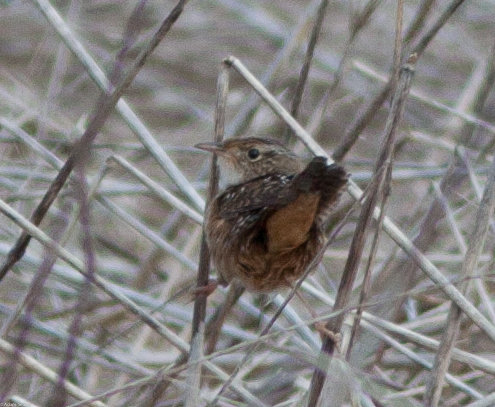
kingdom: Animalia
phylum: Chordata
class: Aves
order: Passeriformes
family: Troglodytidae
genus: Cistothorus
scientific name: Cistothorus platensis
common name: Sedge wren
